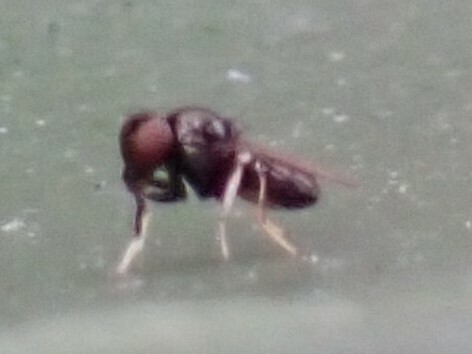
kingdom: Animalia
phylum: Arthropoda
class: Insecta
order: Diptera
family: Ephydridae
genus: Athyroglossa
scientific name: Athyroglossa glaphyropus
